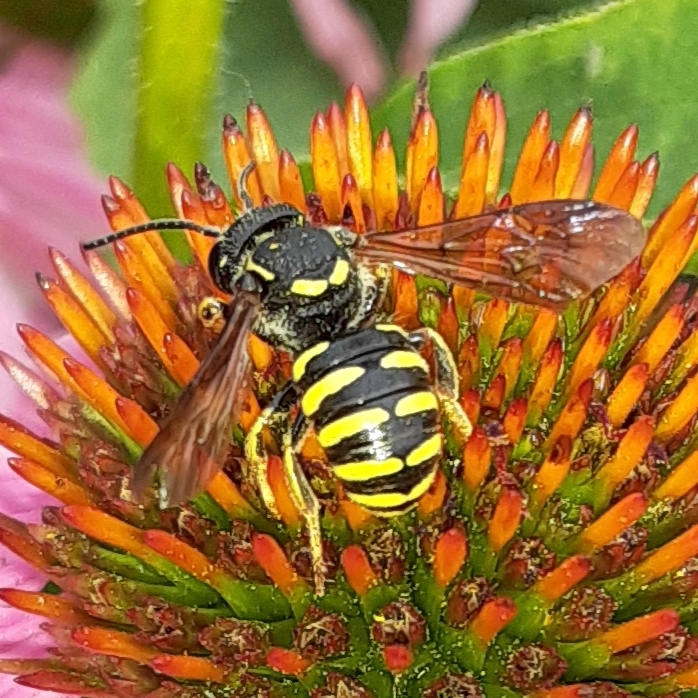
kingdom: Animalia
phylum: Arthropoda
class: Insecta
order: Hymenoptera
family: Megachilidae
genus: Paranthidium
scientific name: Paranthidium jugatorium
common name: Sunflower burrowing-resin bee
